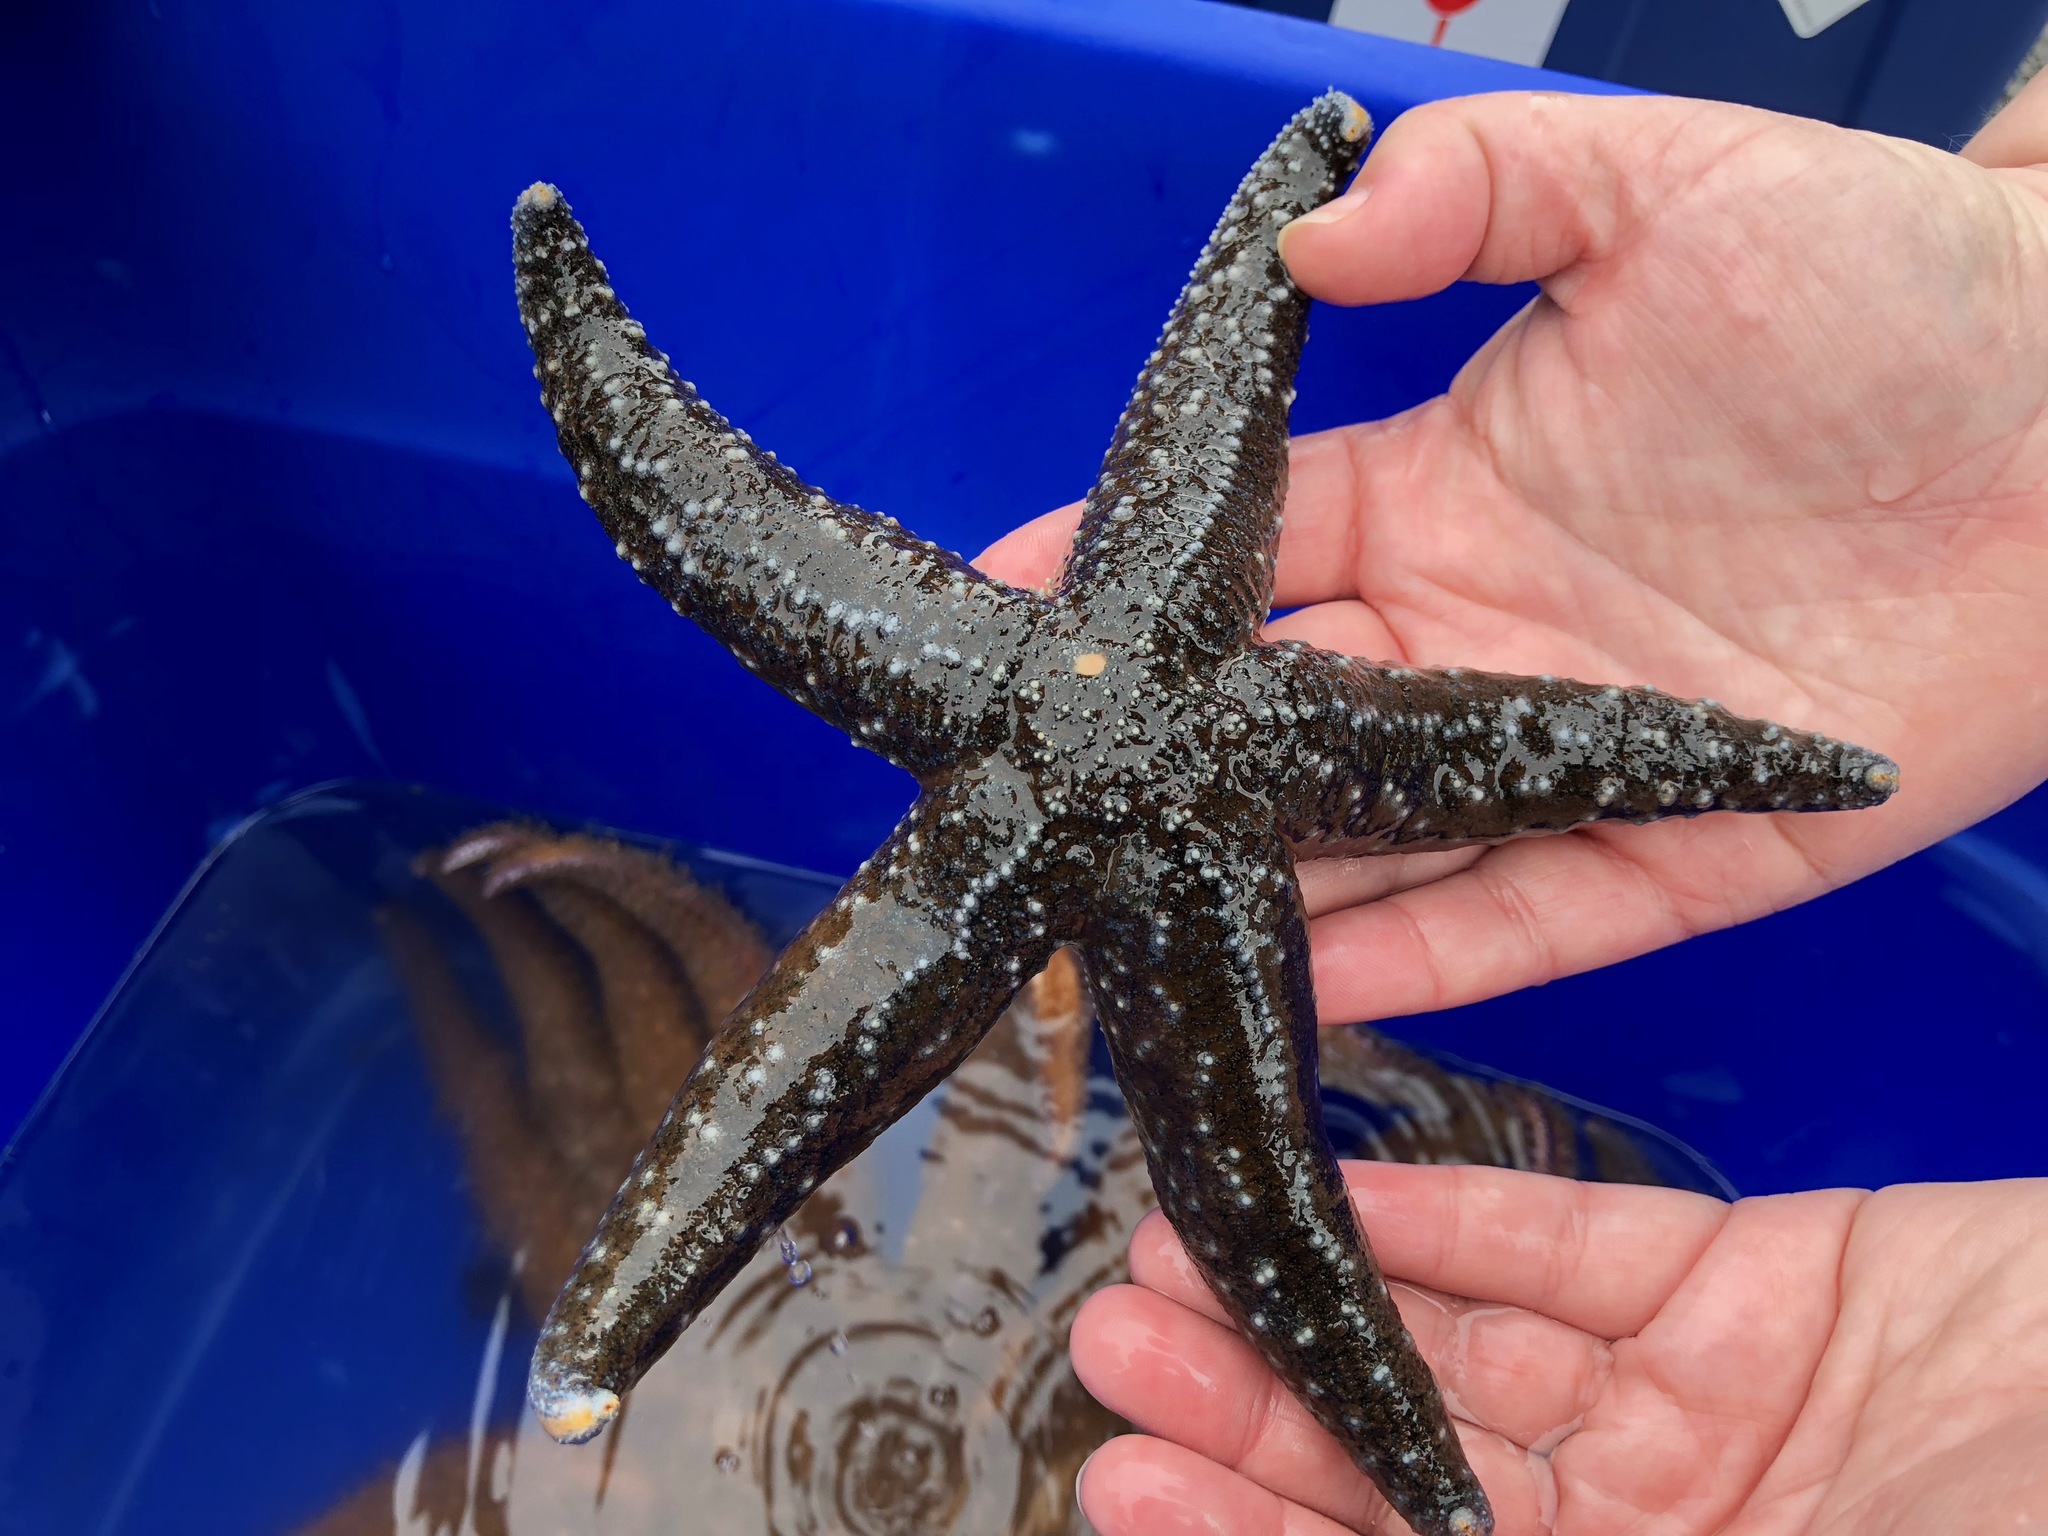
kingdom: Animalia
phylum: Echinodermata
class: Asteroidea
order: Forcipulatida
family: Asteriidae
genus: Evasterias
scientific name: Evasterias troschelii
